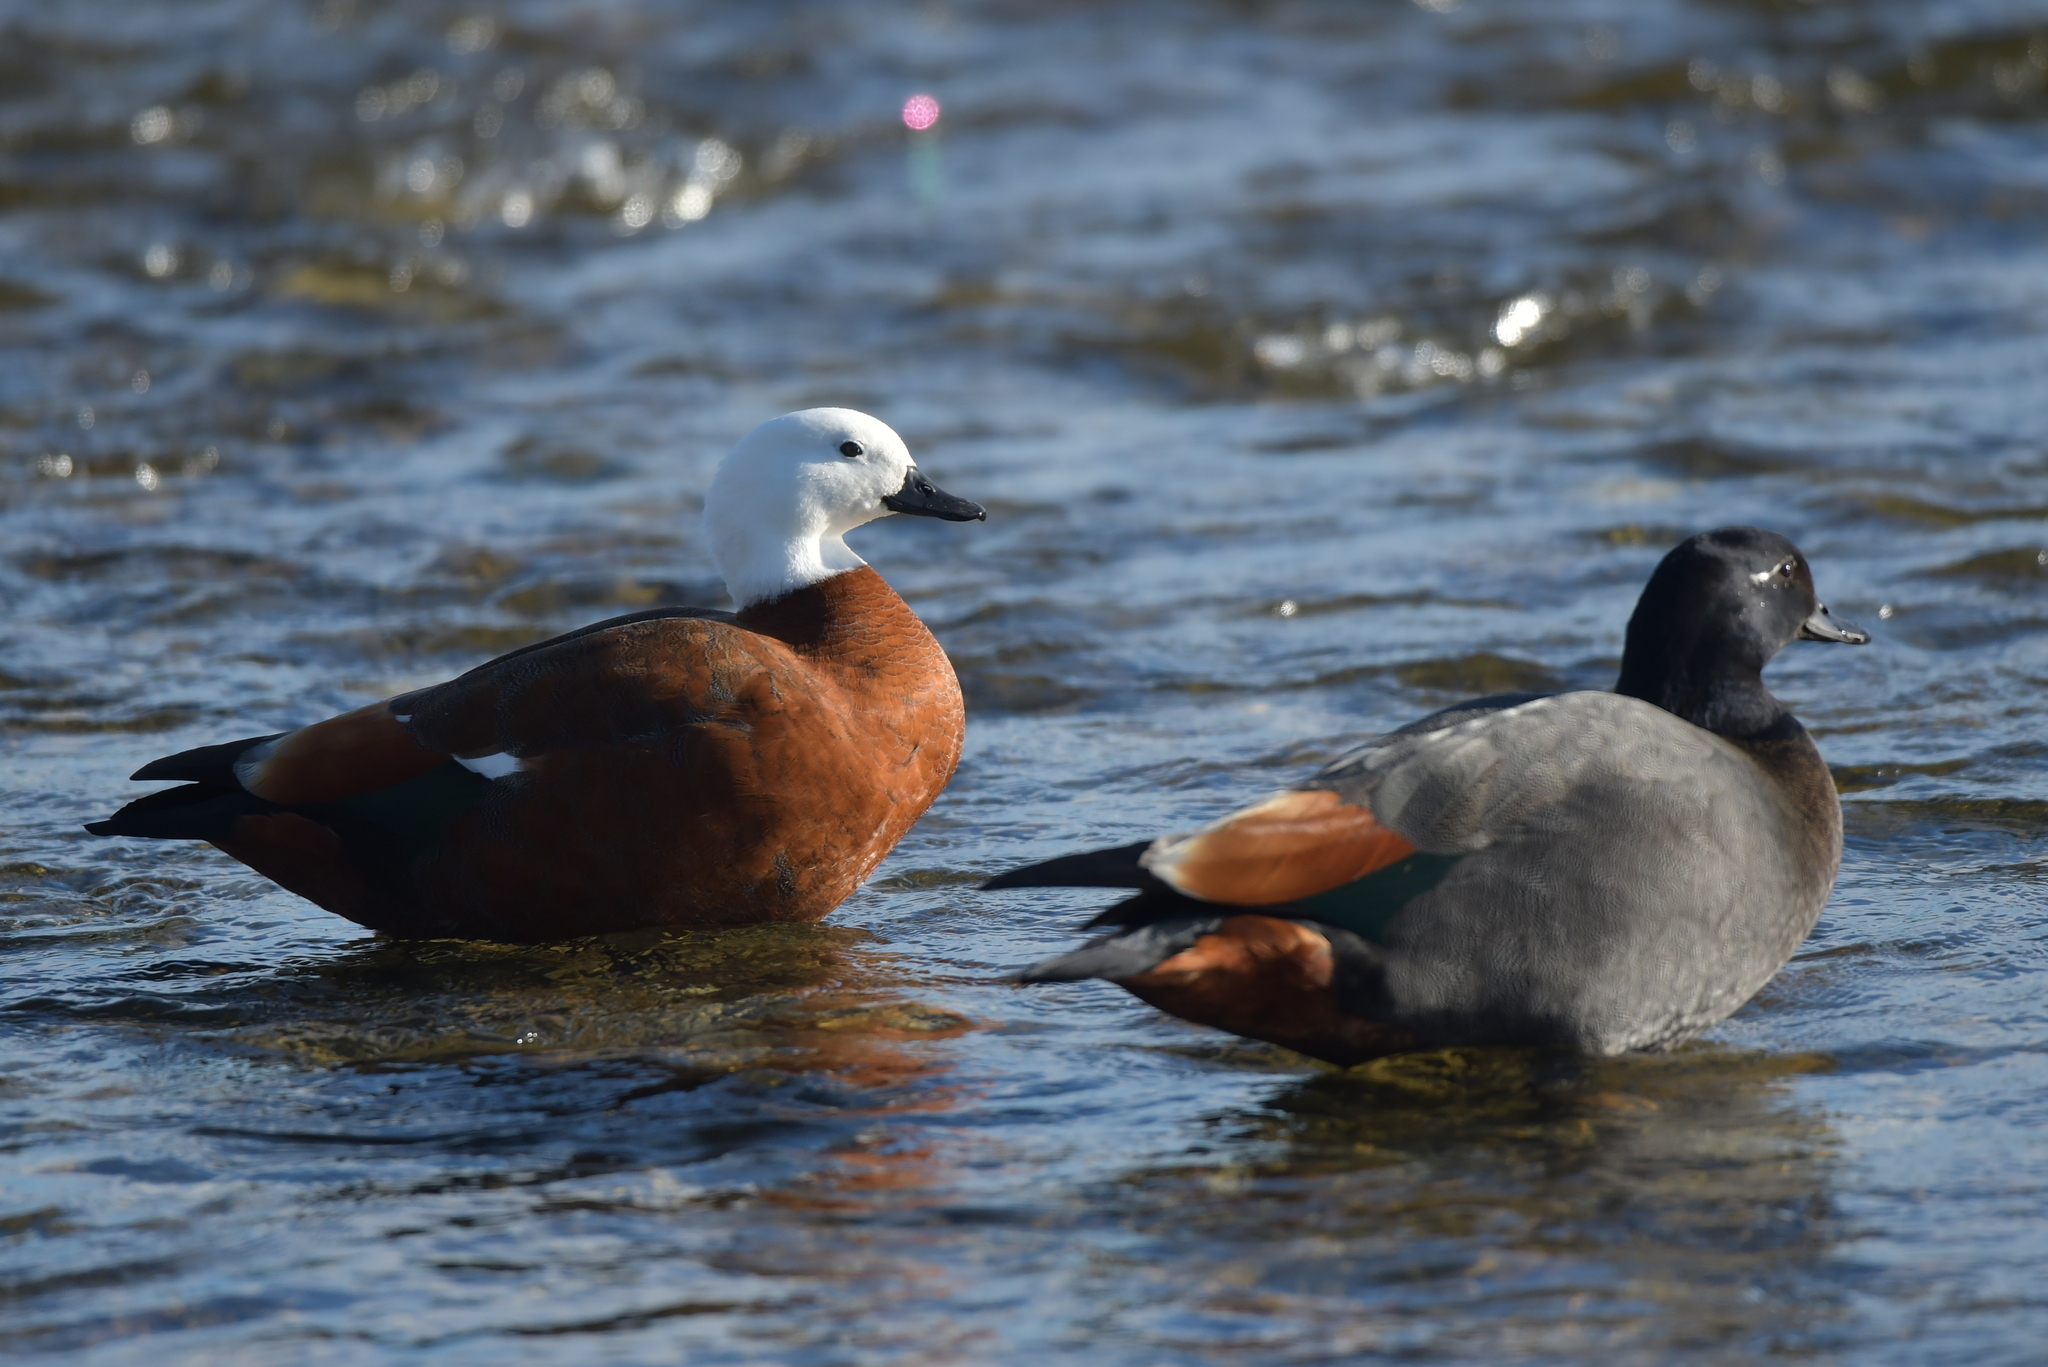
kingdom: Animalia
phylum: Chordata
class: Aves
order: Anseriformes
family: Anatidae
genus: Tadorna
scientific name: Tadorna variegata
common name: Paradise shelduck
